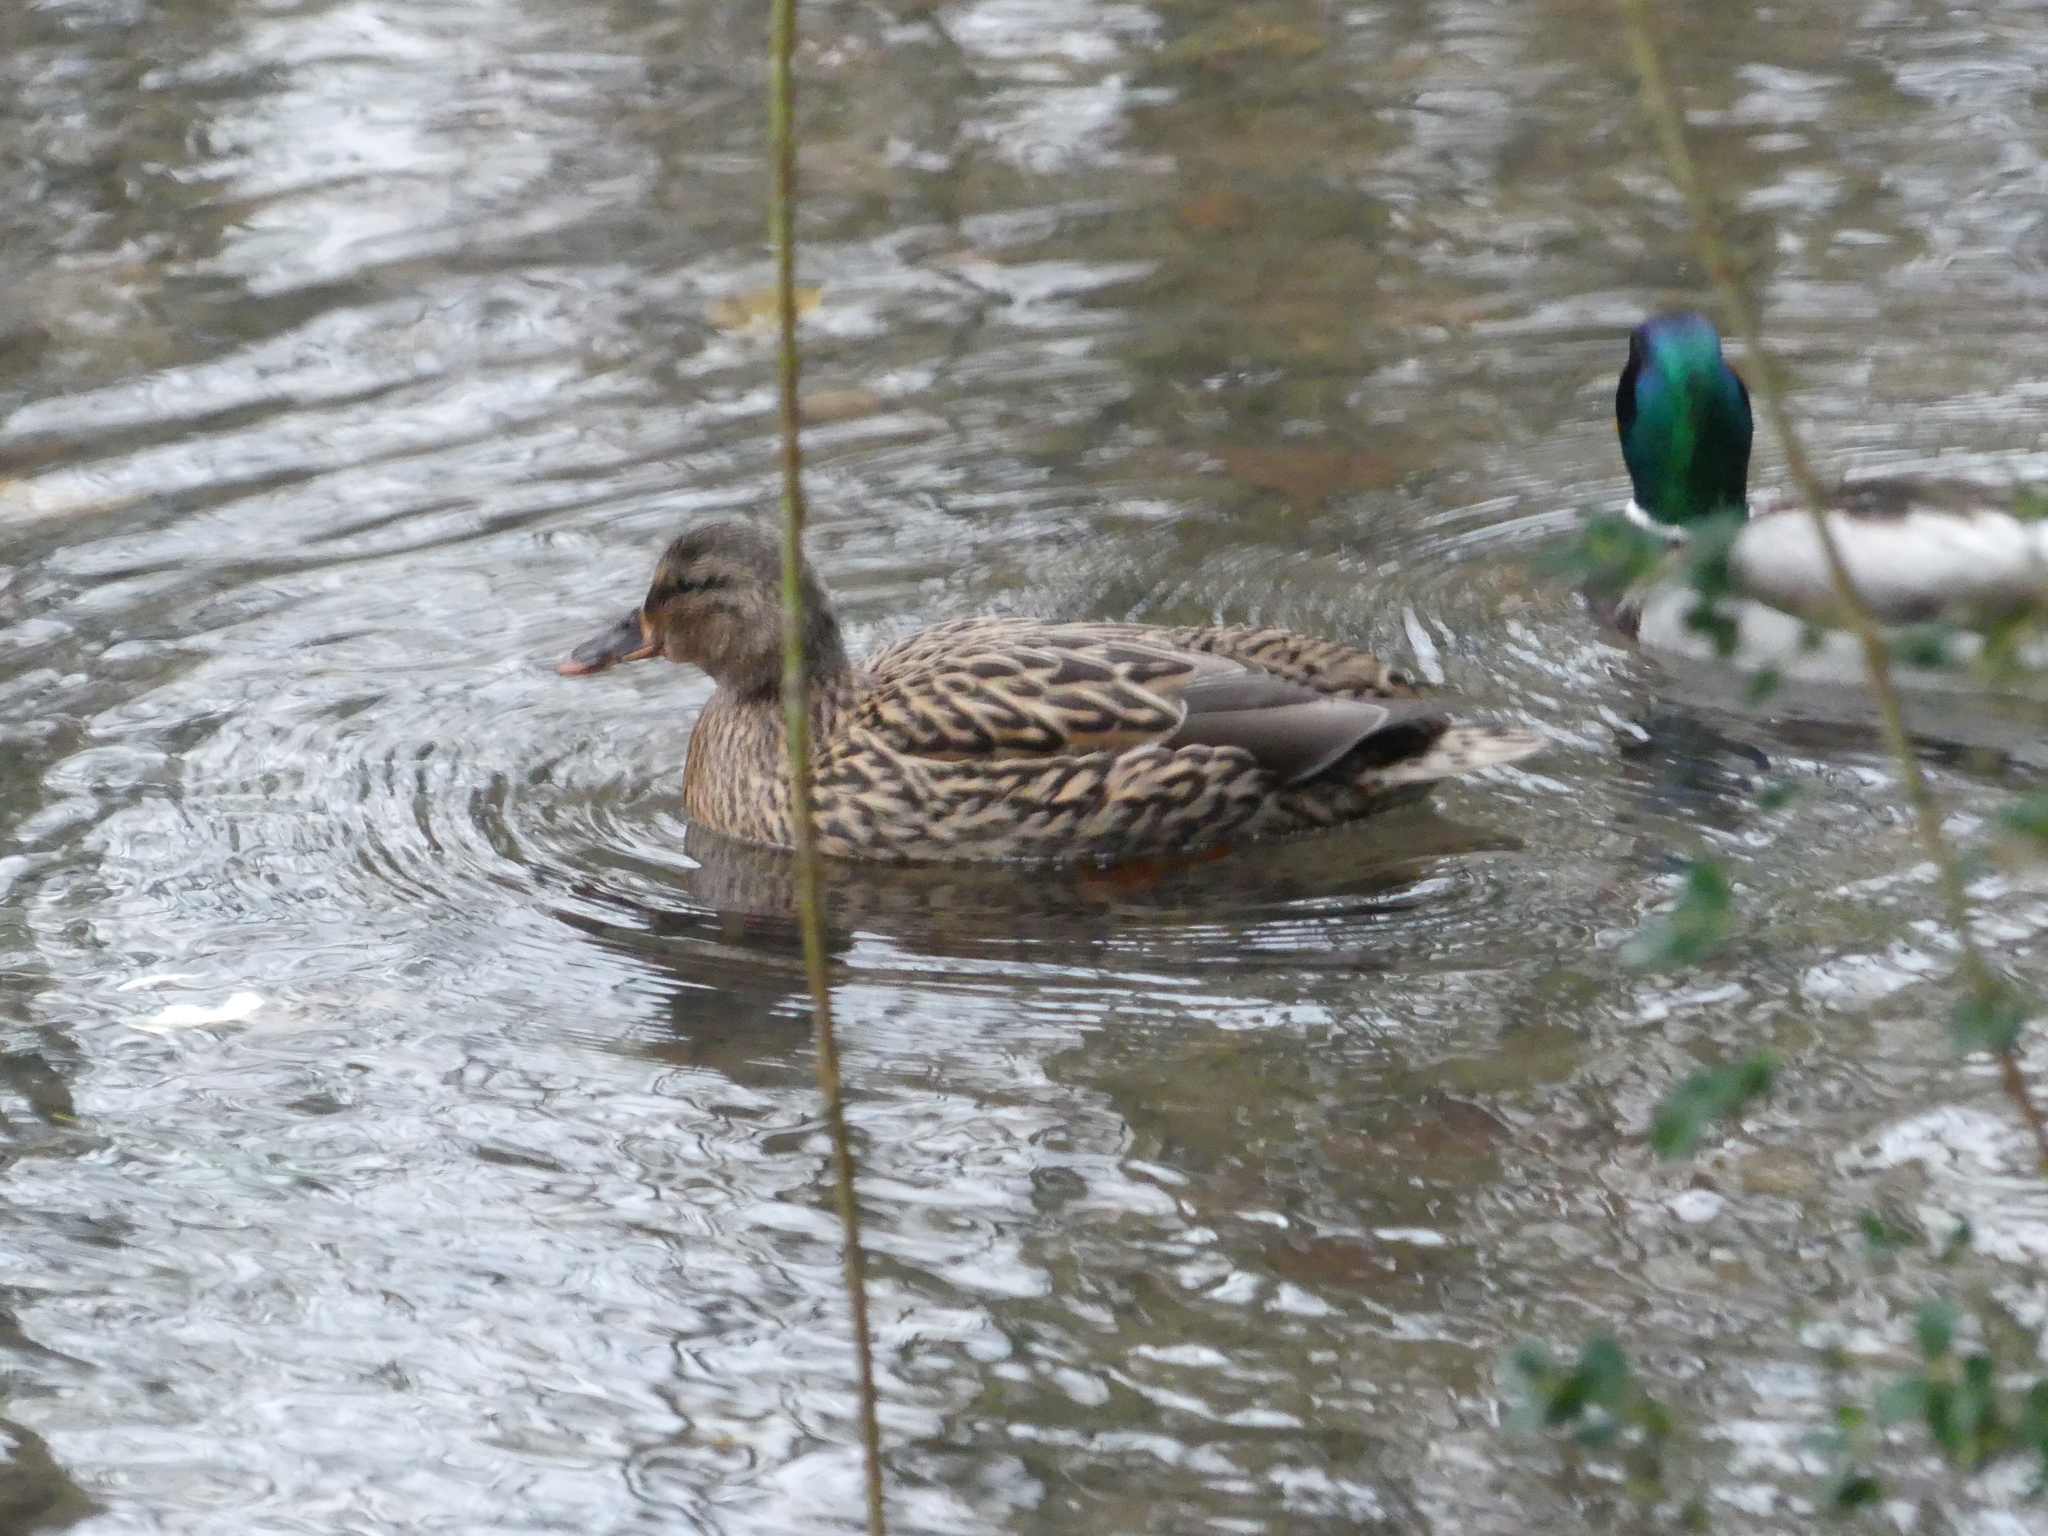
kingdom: Animalia
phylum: Chordata
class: Aves
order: Anseriformes
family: Anatidae
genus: Anas
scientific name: Anas platyrhynchos
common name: Mallard
